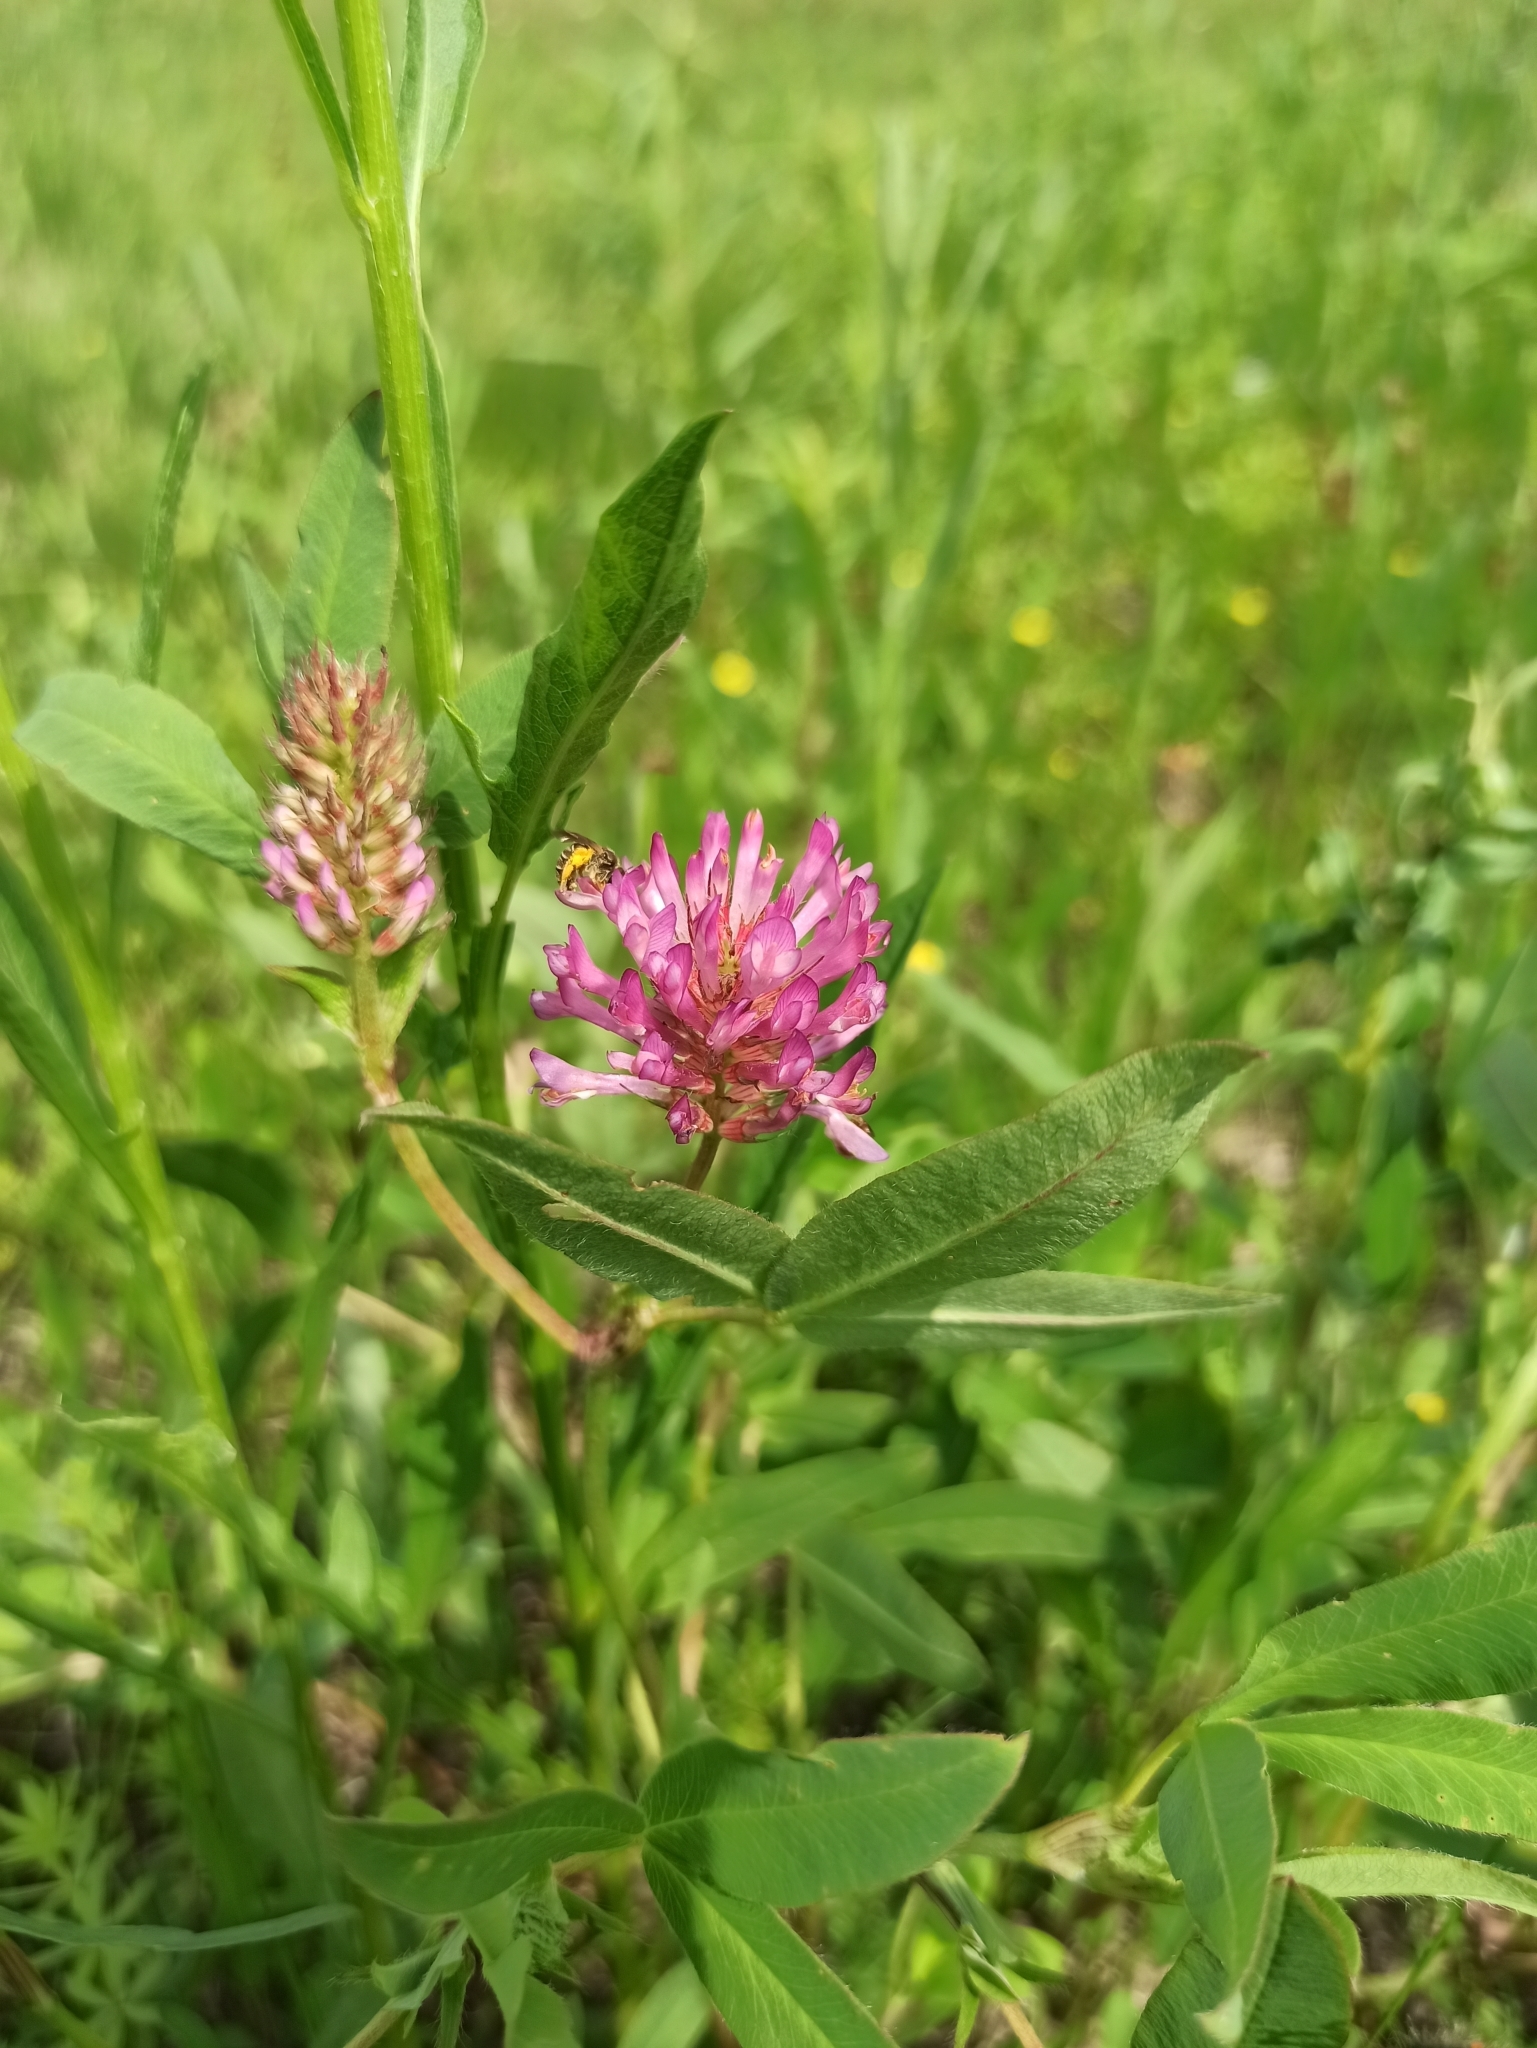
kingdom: Plantae
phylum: Tracheophyta
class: Magnoliopsida
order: Fabales
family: Fabaceae
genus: Trifolium
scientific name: Trifolium medium
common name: Zigzag clover
